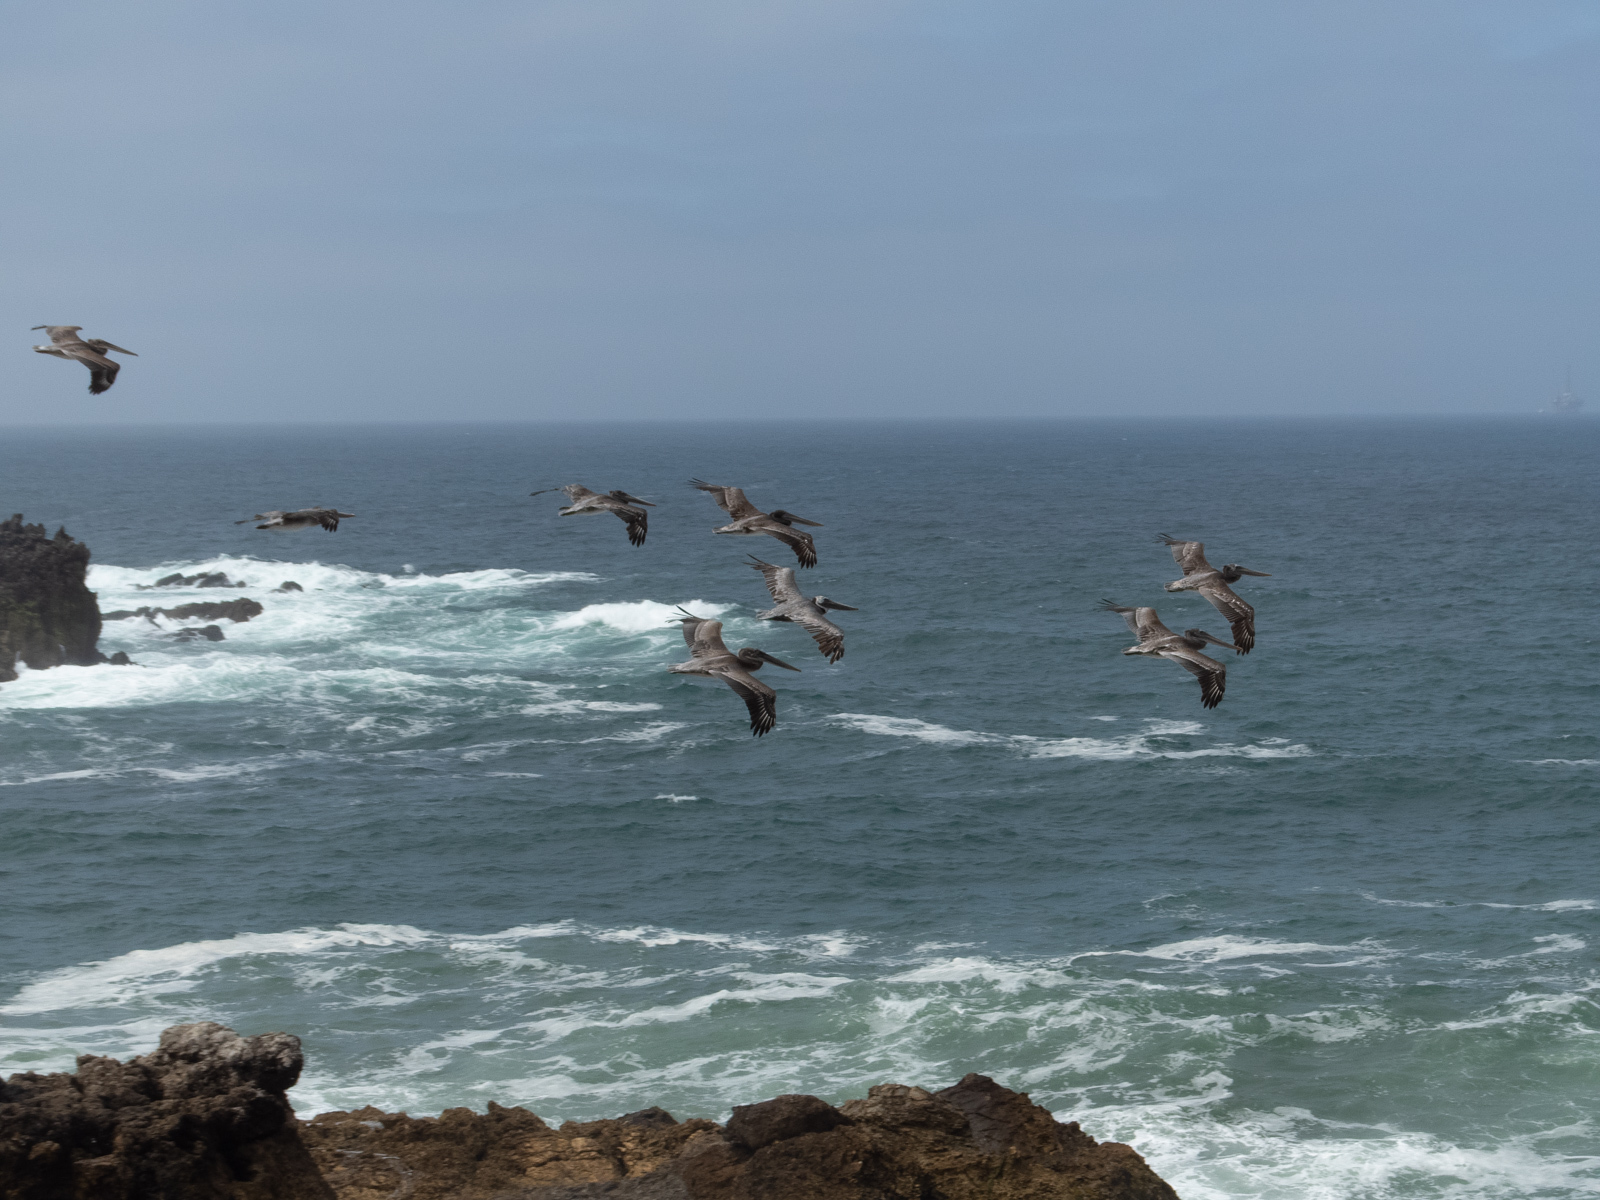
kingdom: Animalia
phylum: Chordata
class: Aves
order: Pelecaniformes
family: Pelecanidae
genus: Pelecanus
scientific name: Pelecanus occidentalis
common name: Brown pelican
